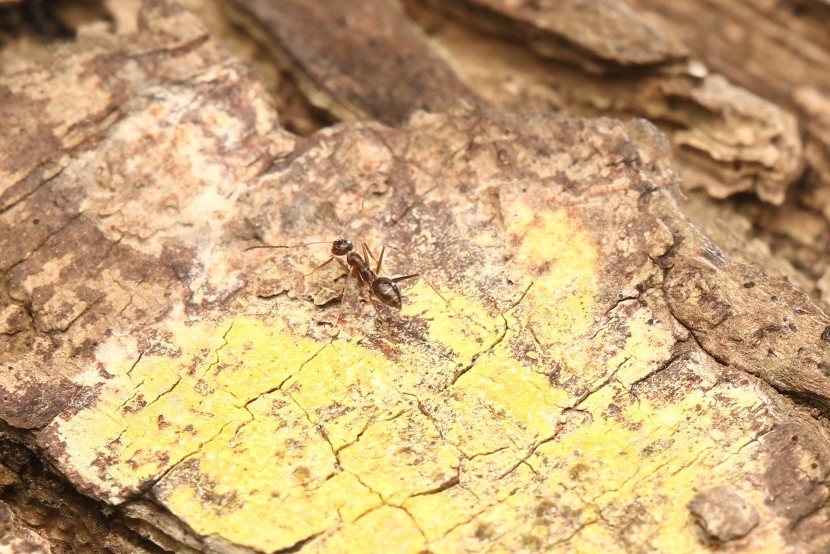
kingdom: Animalia
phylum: Arthropoda
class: Insecta
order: Hymenoptera
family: Formicidae
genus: Paratrechina
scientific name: Paratrechina longicornis
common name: Longhorned crazy ant
